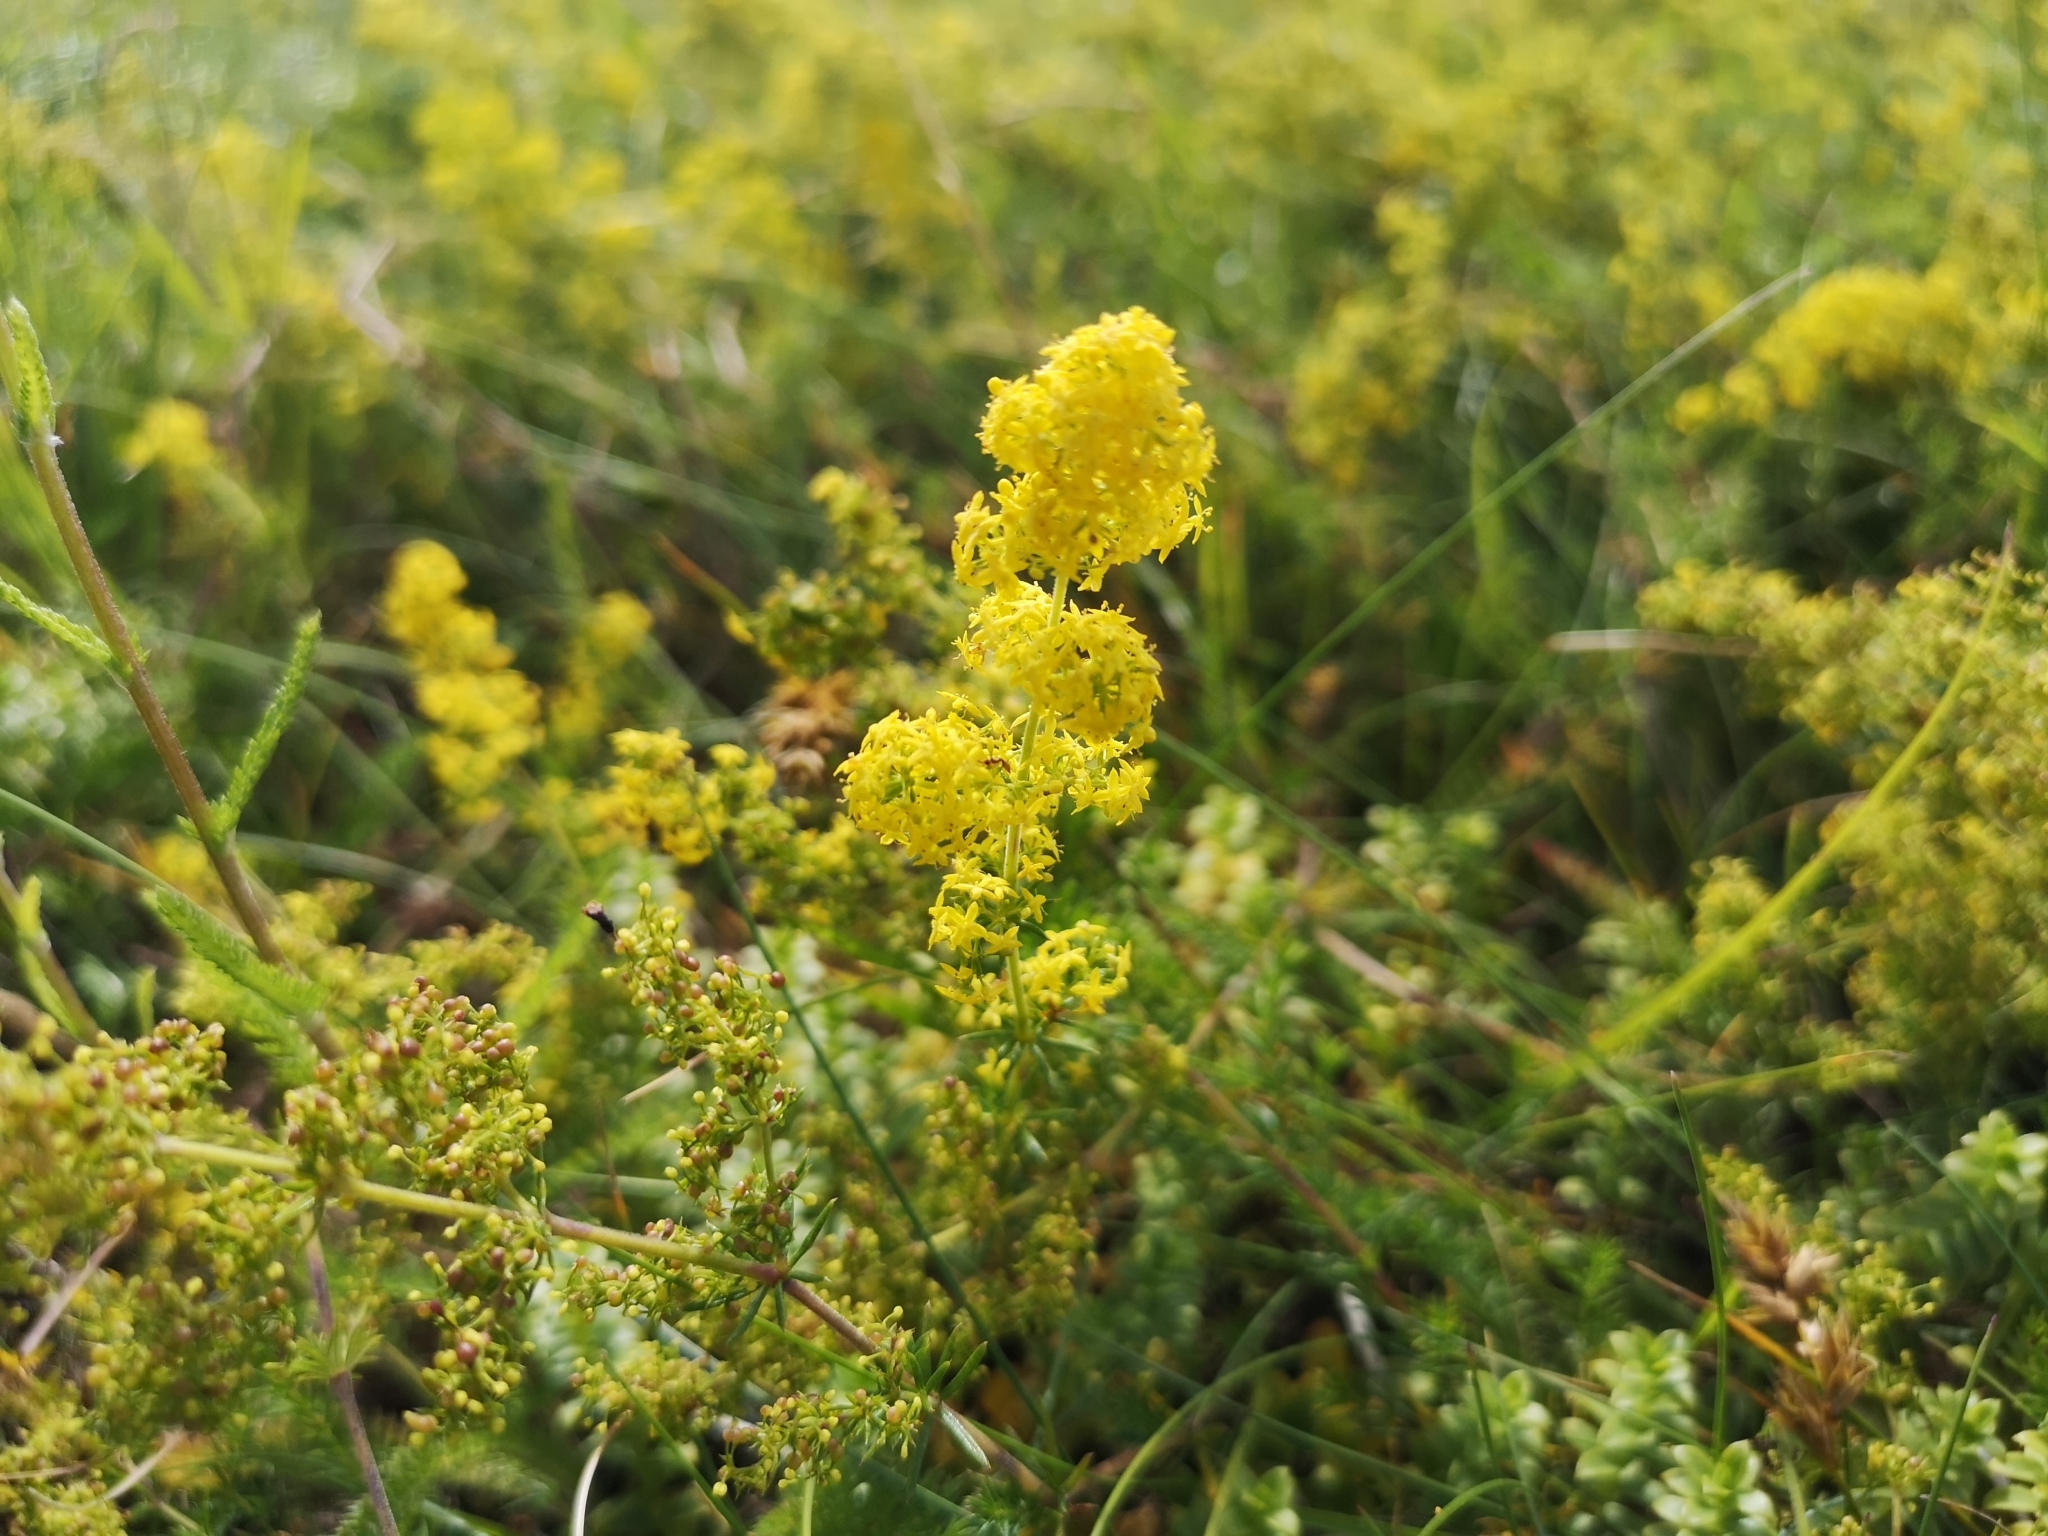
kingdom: Plantae
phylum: Tracheophyta
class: Magnoliopsida
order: Gentianales
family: Rubiaceae
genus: Galium
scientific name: Galium verum
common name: Lady's bedstraw
